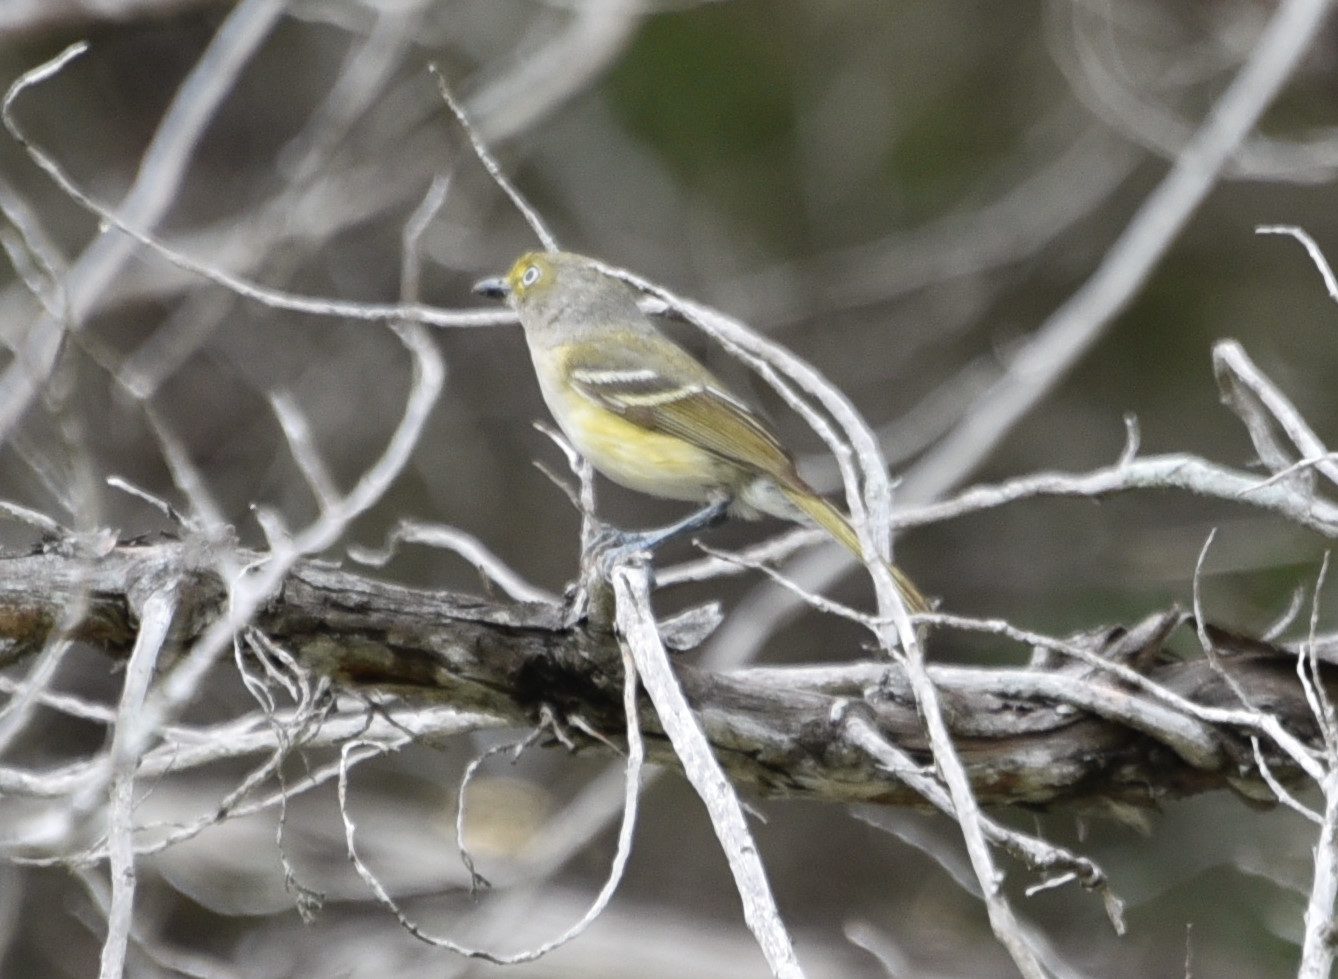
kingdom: Animalia
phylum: Chordata
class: Aves
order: Passeriformes
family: Vireonidae
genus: Vireo
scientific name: Vireo griseus
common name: White-eyed vireo
